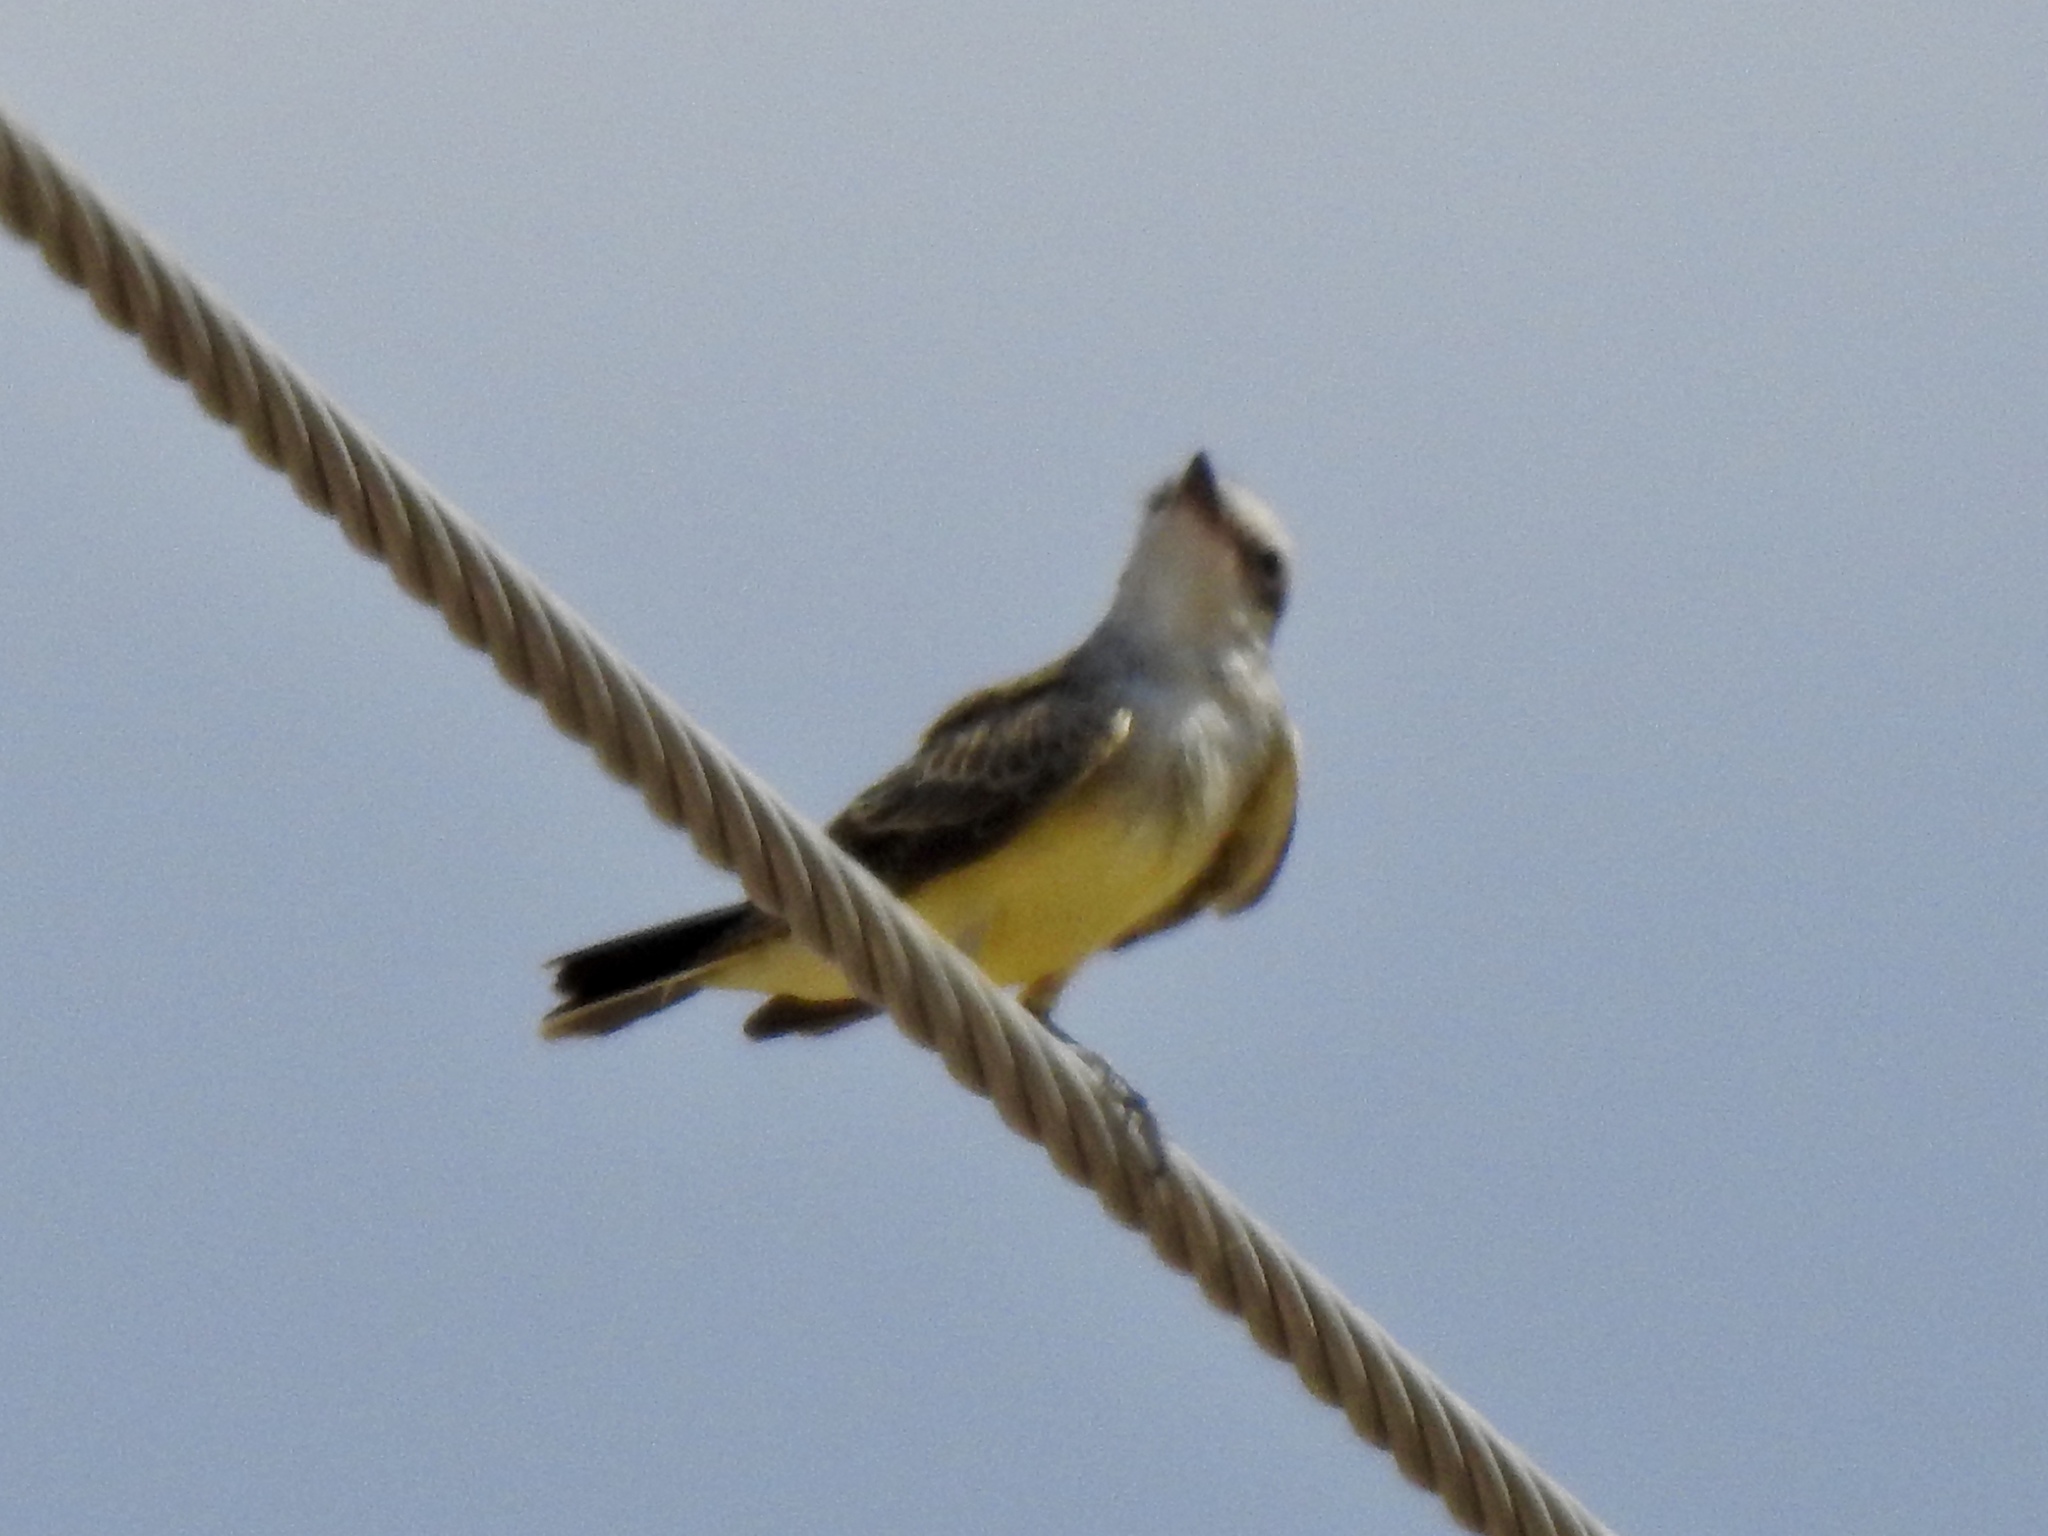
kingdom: Animalia
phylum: Chordata
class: Aves
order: Passeriformes
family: Tyrannidae
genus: Tyrannus
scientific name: Tyrannus verticalis
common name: Western kingbird
